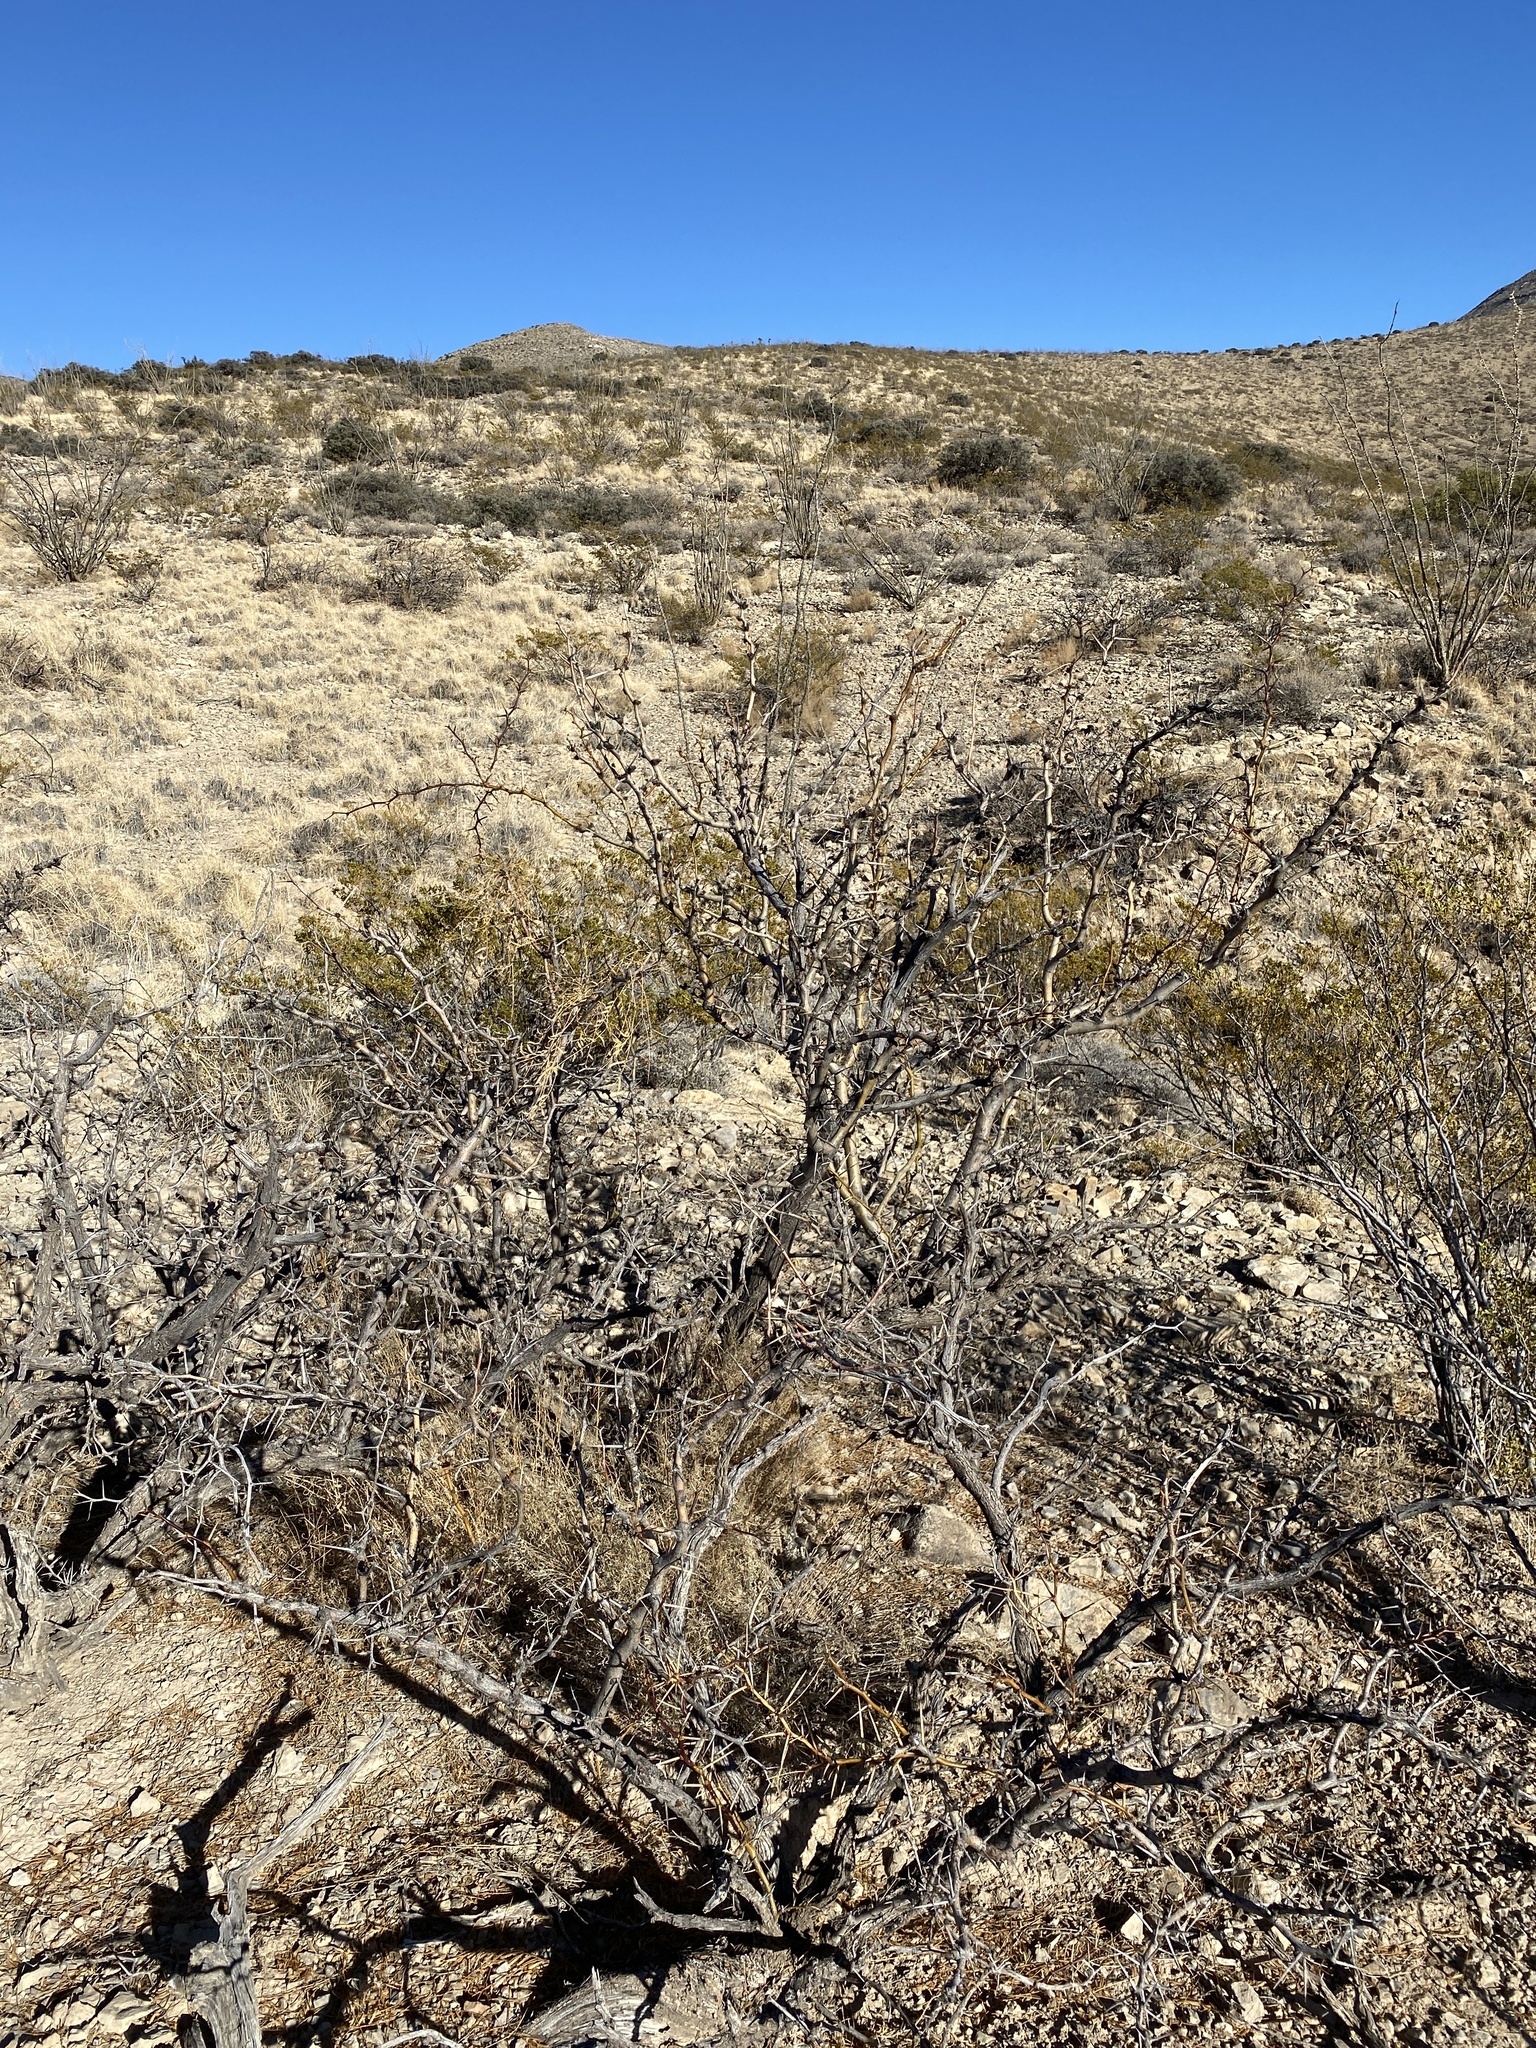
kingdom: Plantae
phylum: Tracheophyta
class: Magnoliopsida
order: Fabales
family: Fabaceae
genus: Prosopis
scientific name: Prosopis glandulosa
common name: Honey mesquite
